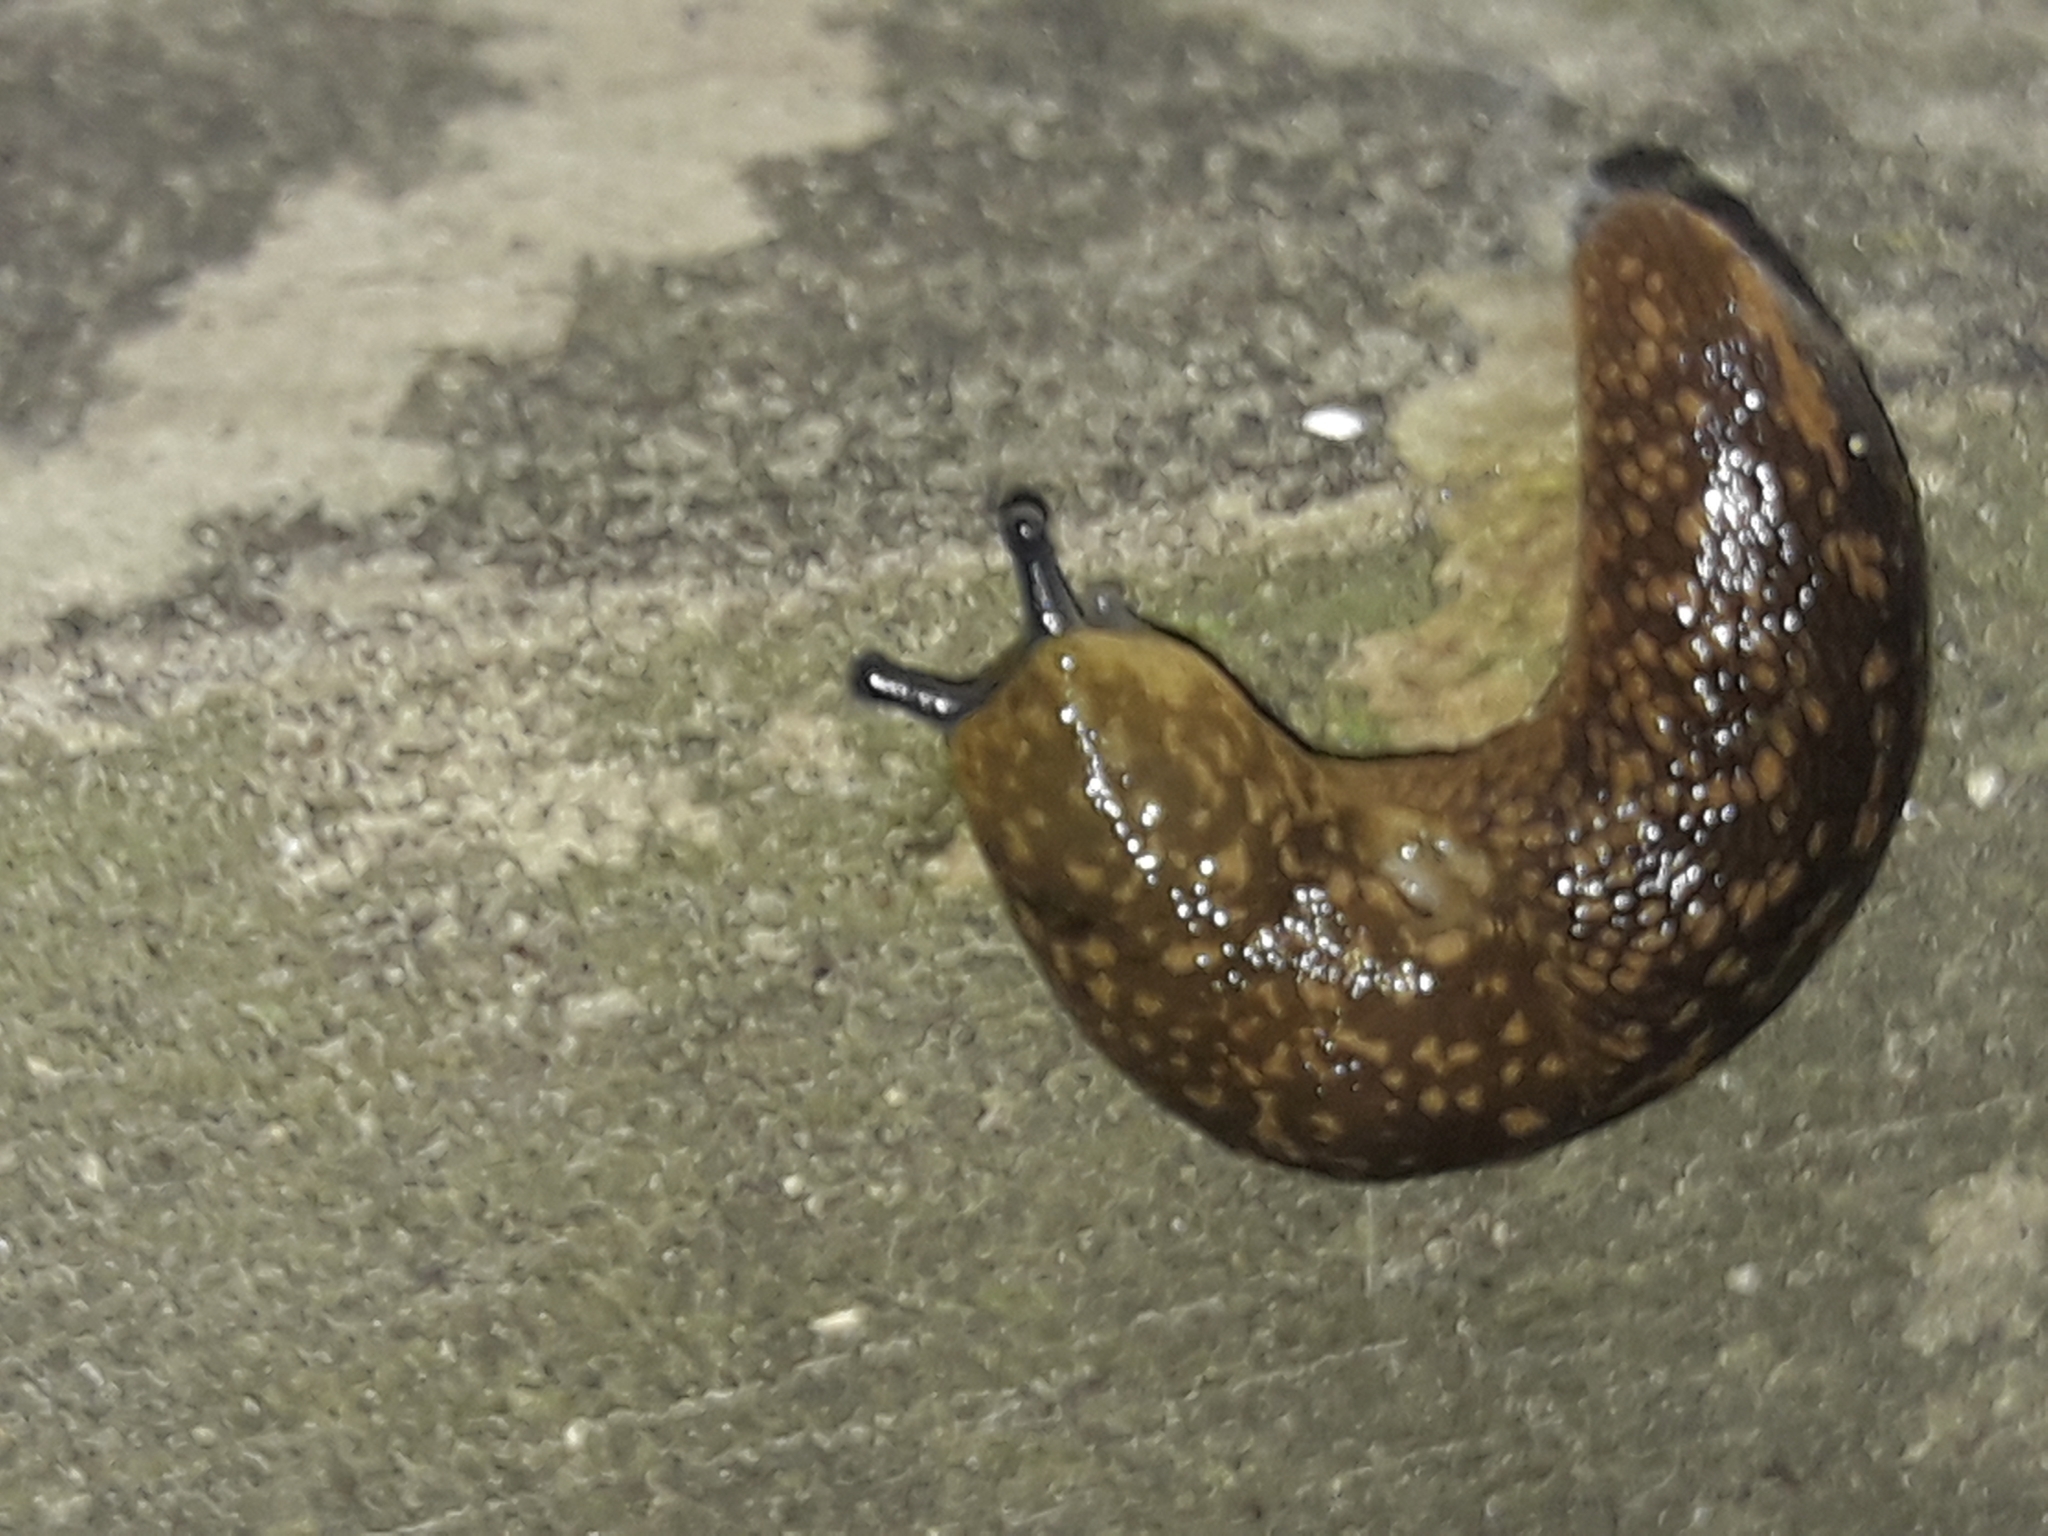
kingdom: Animalia
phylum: Mollusca
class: Gastropoda
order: Stylommatophora
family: Limacidae
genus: Limacus
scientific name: Limacus flavus
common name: Yellow gardenslug
